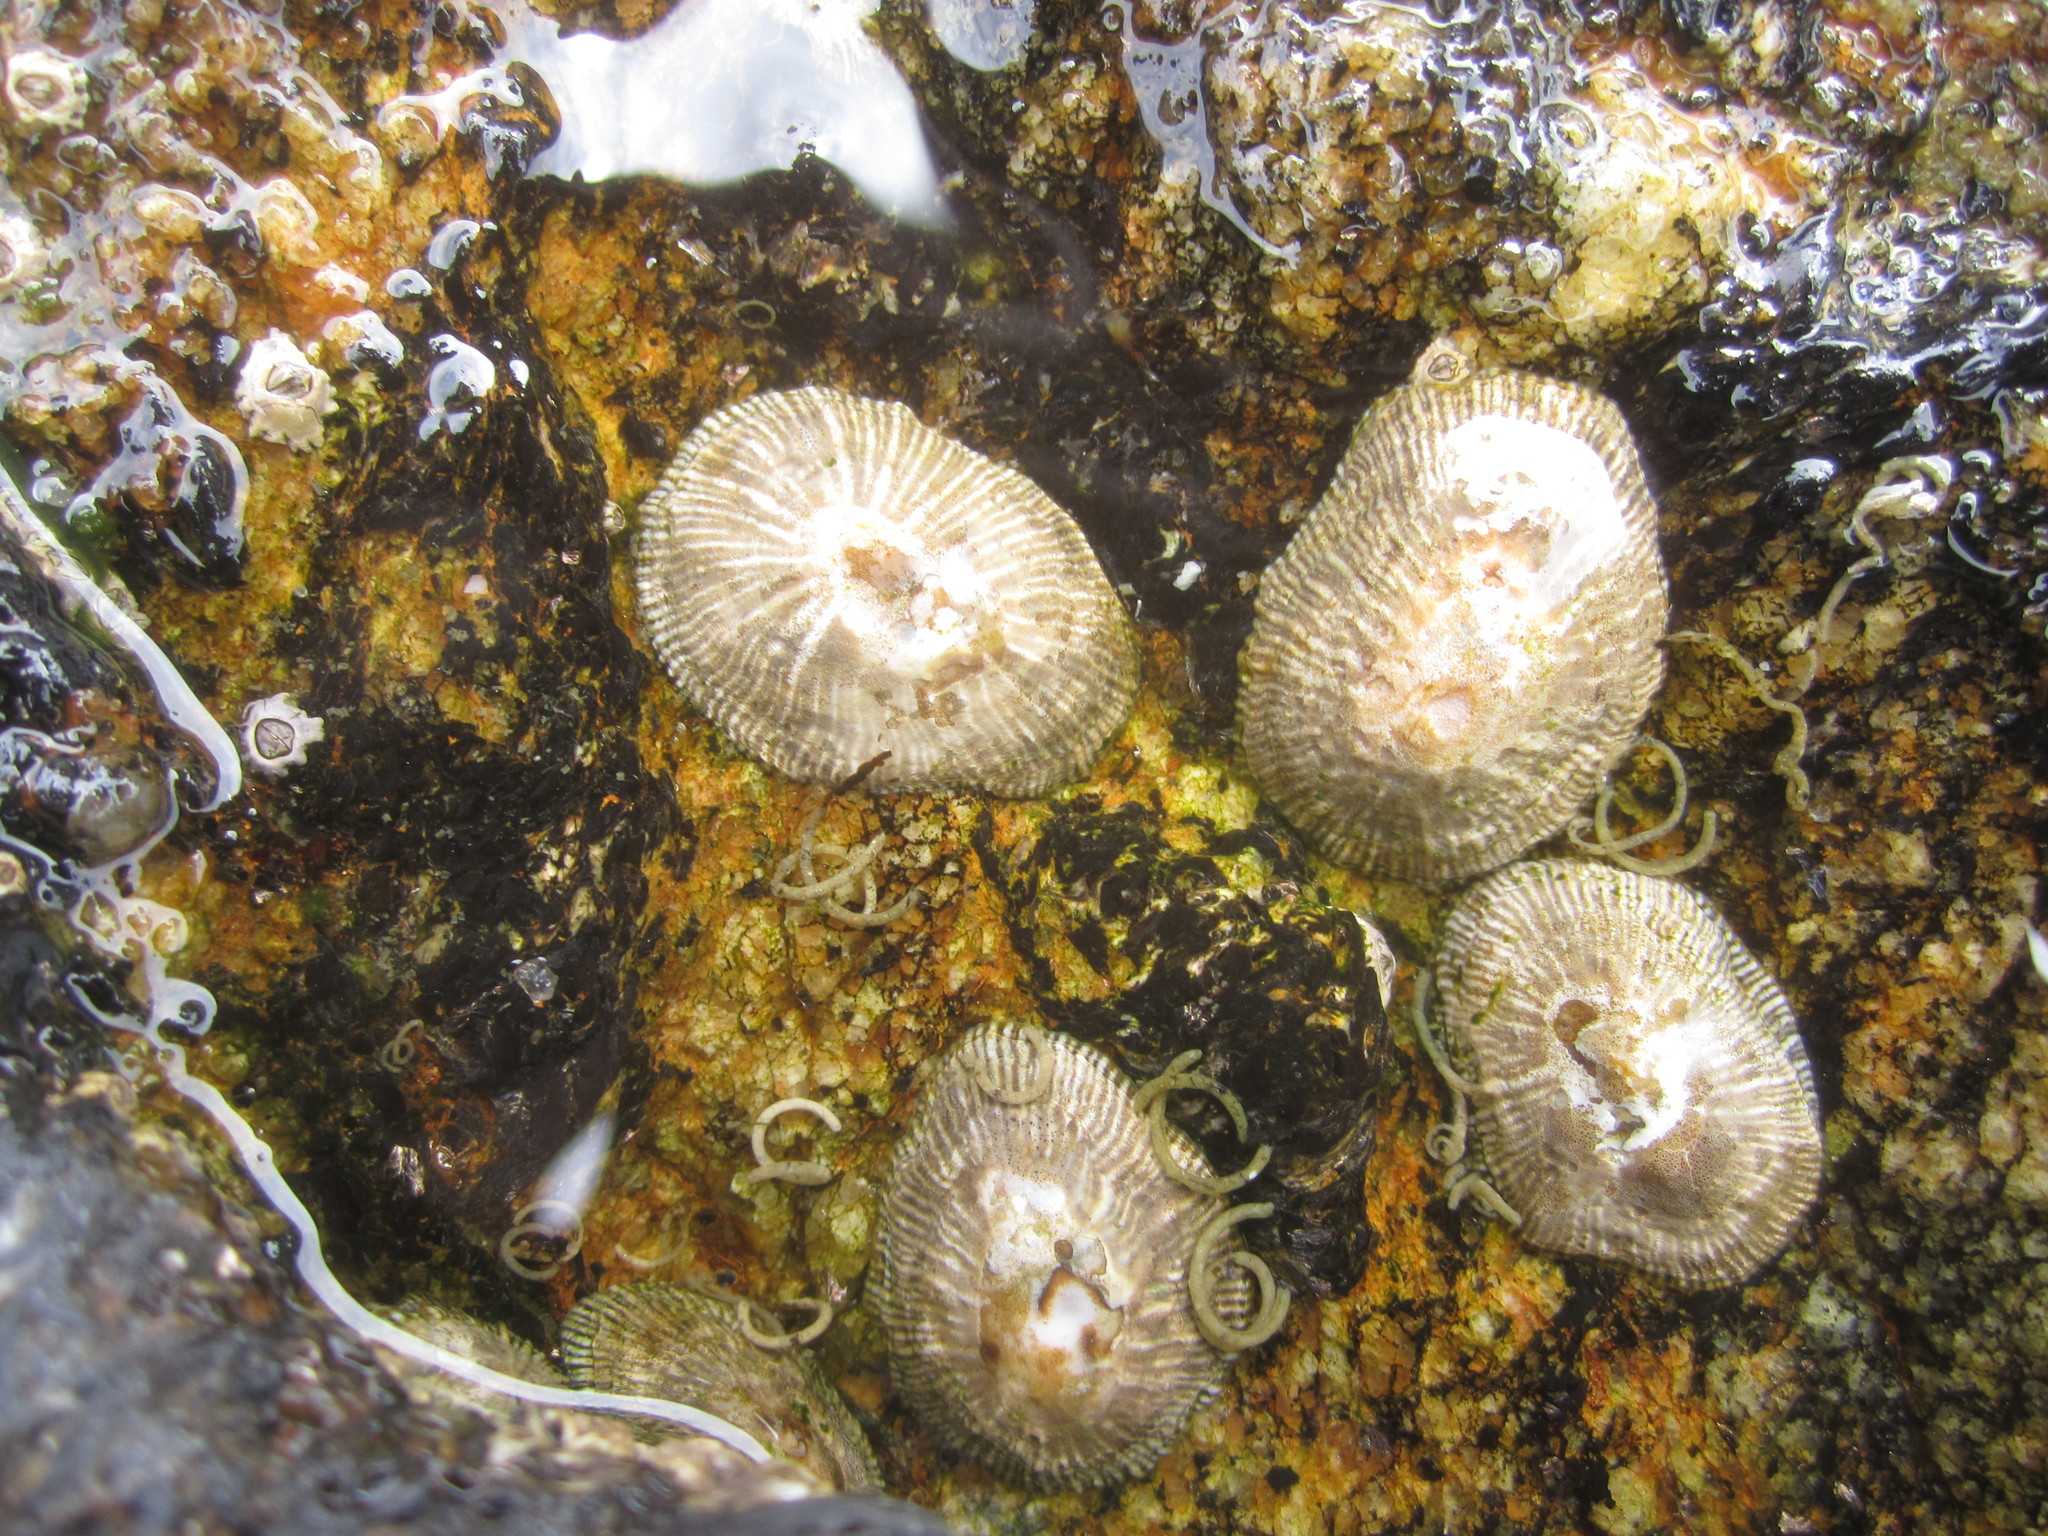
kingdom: Animalia
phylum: Mollusca
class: Gastropoda
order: Siphonariida
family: Siphonariidae
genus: Siphonaria
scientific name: Siphonaria pectinata
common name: Striped false limpet
